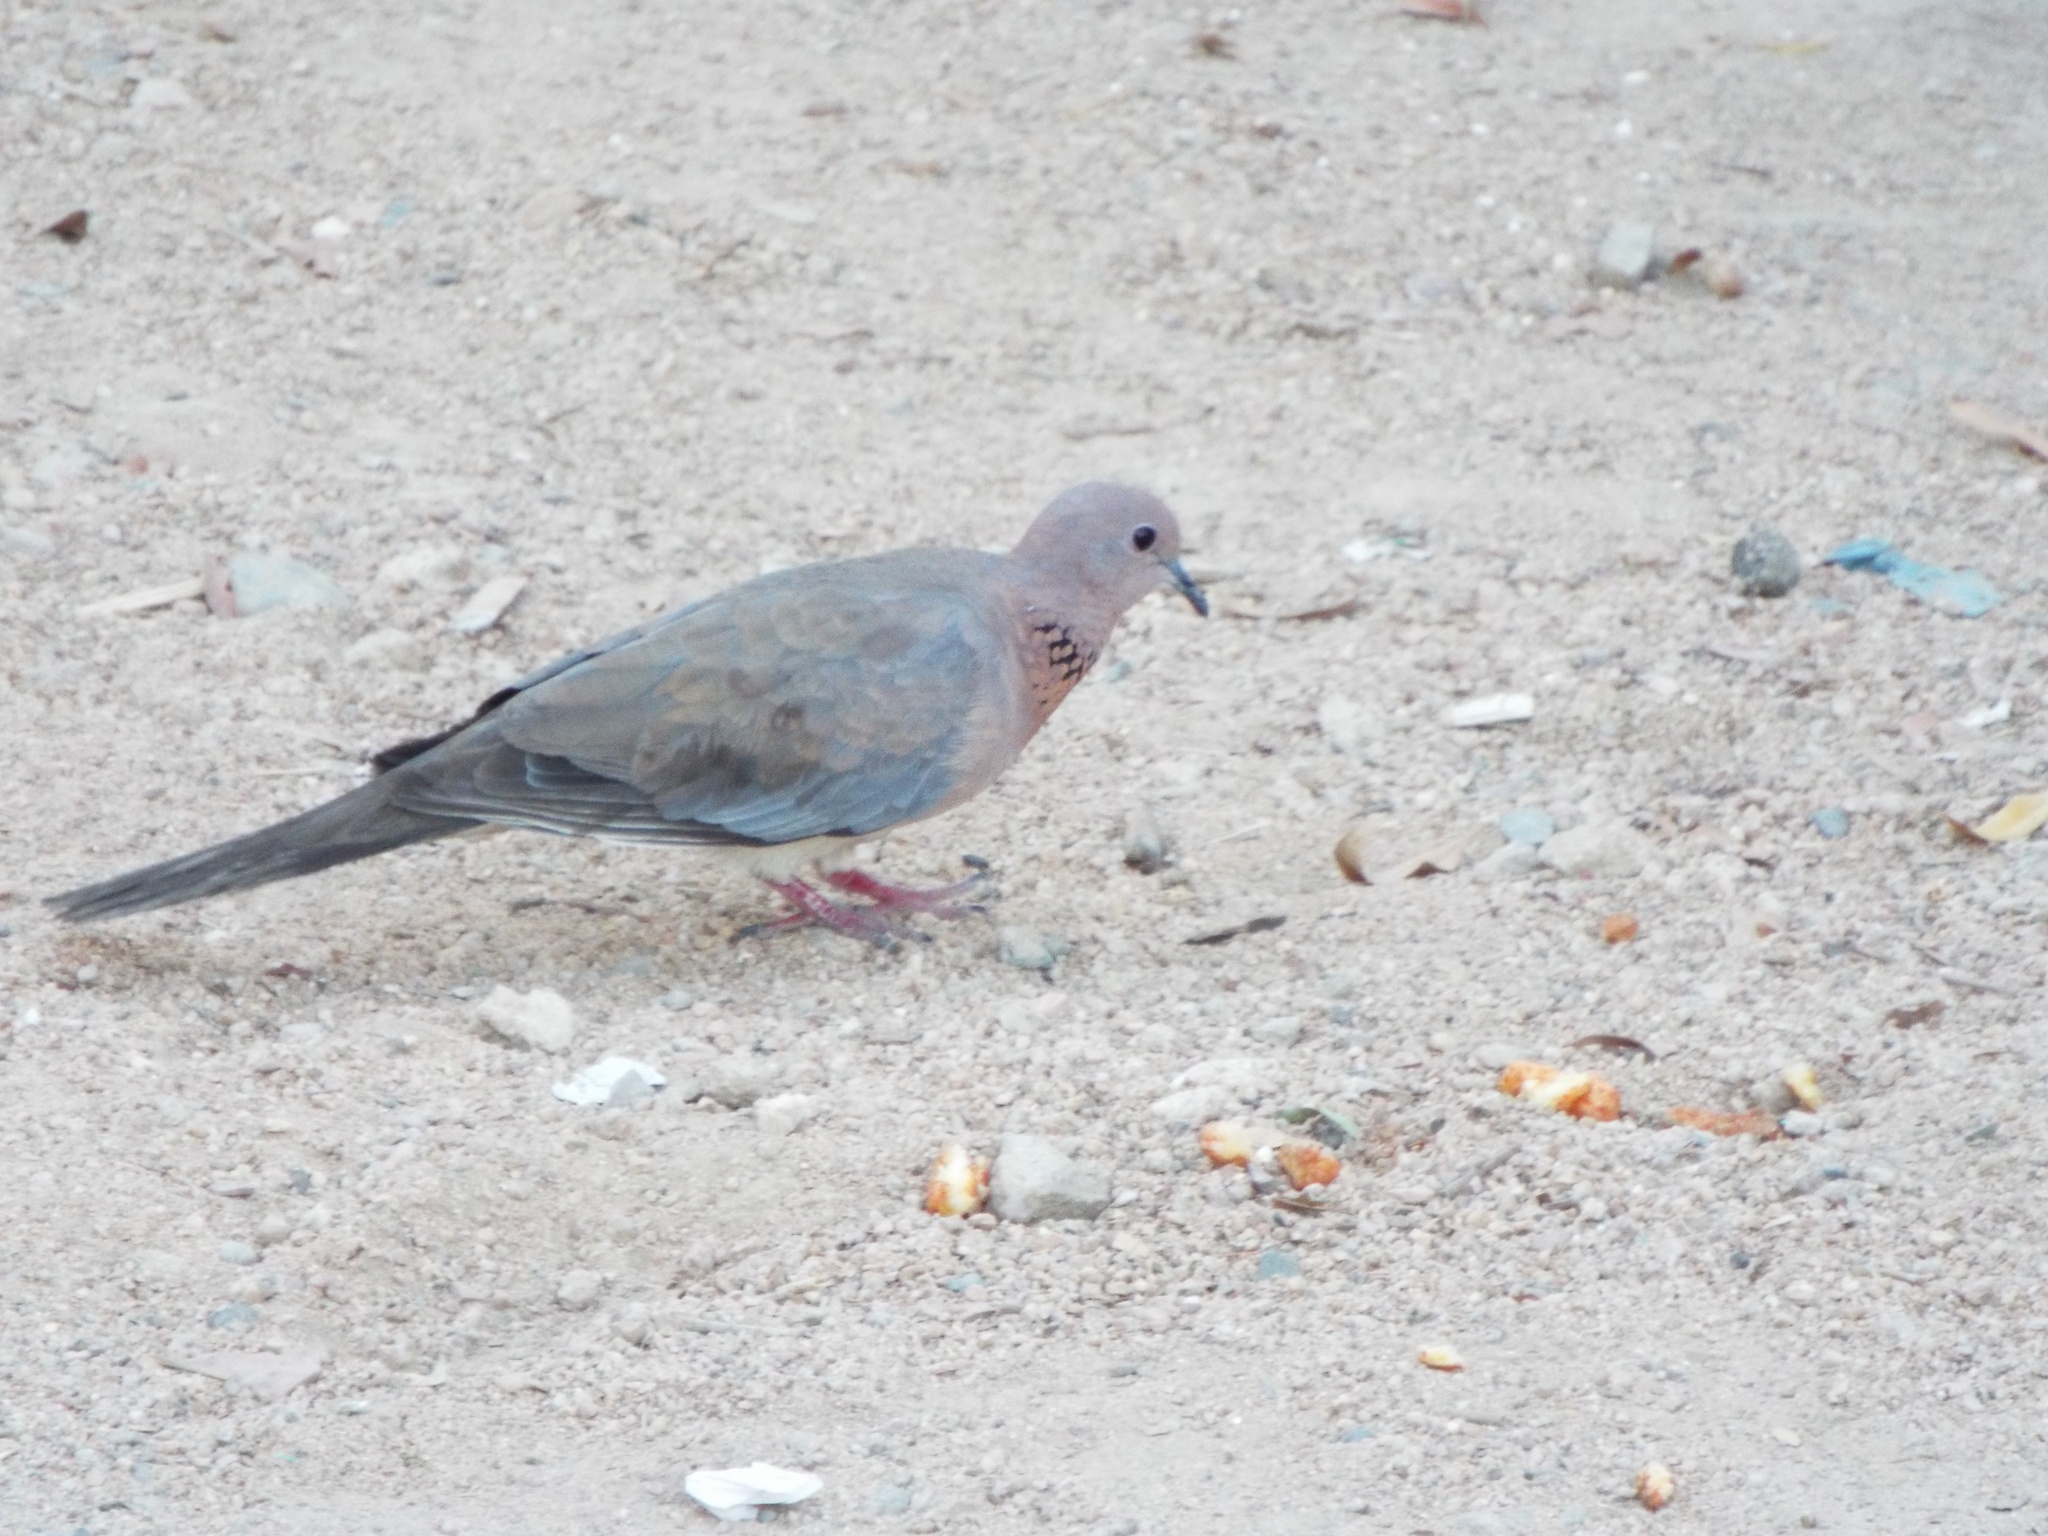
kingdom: Animalia
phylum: Chordata
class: Aves
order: Columbiformes
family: Columbidae
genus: Spilopelia
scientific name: Spilopelia senegalensis
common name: Laughing dove
